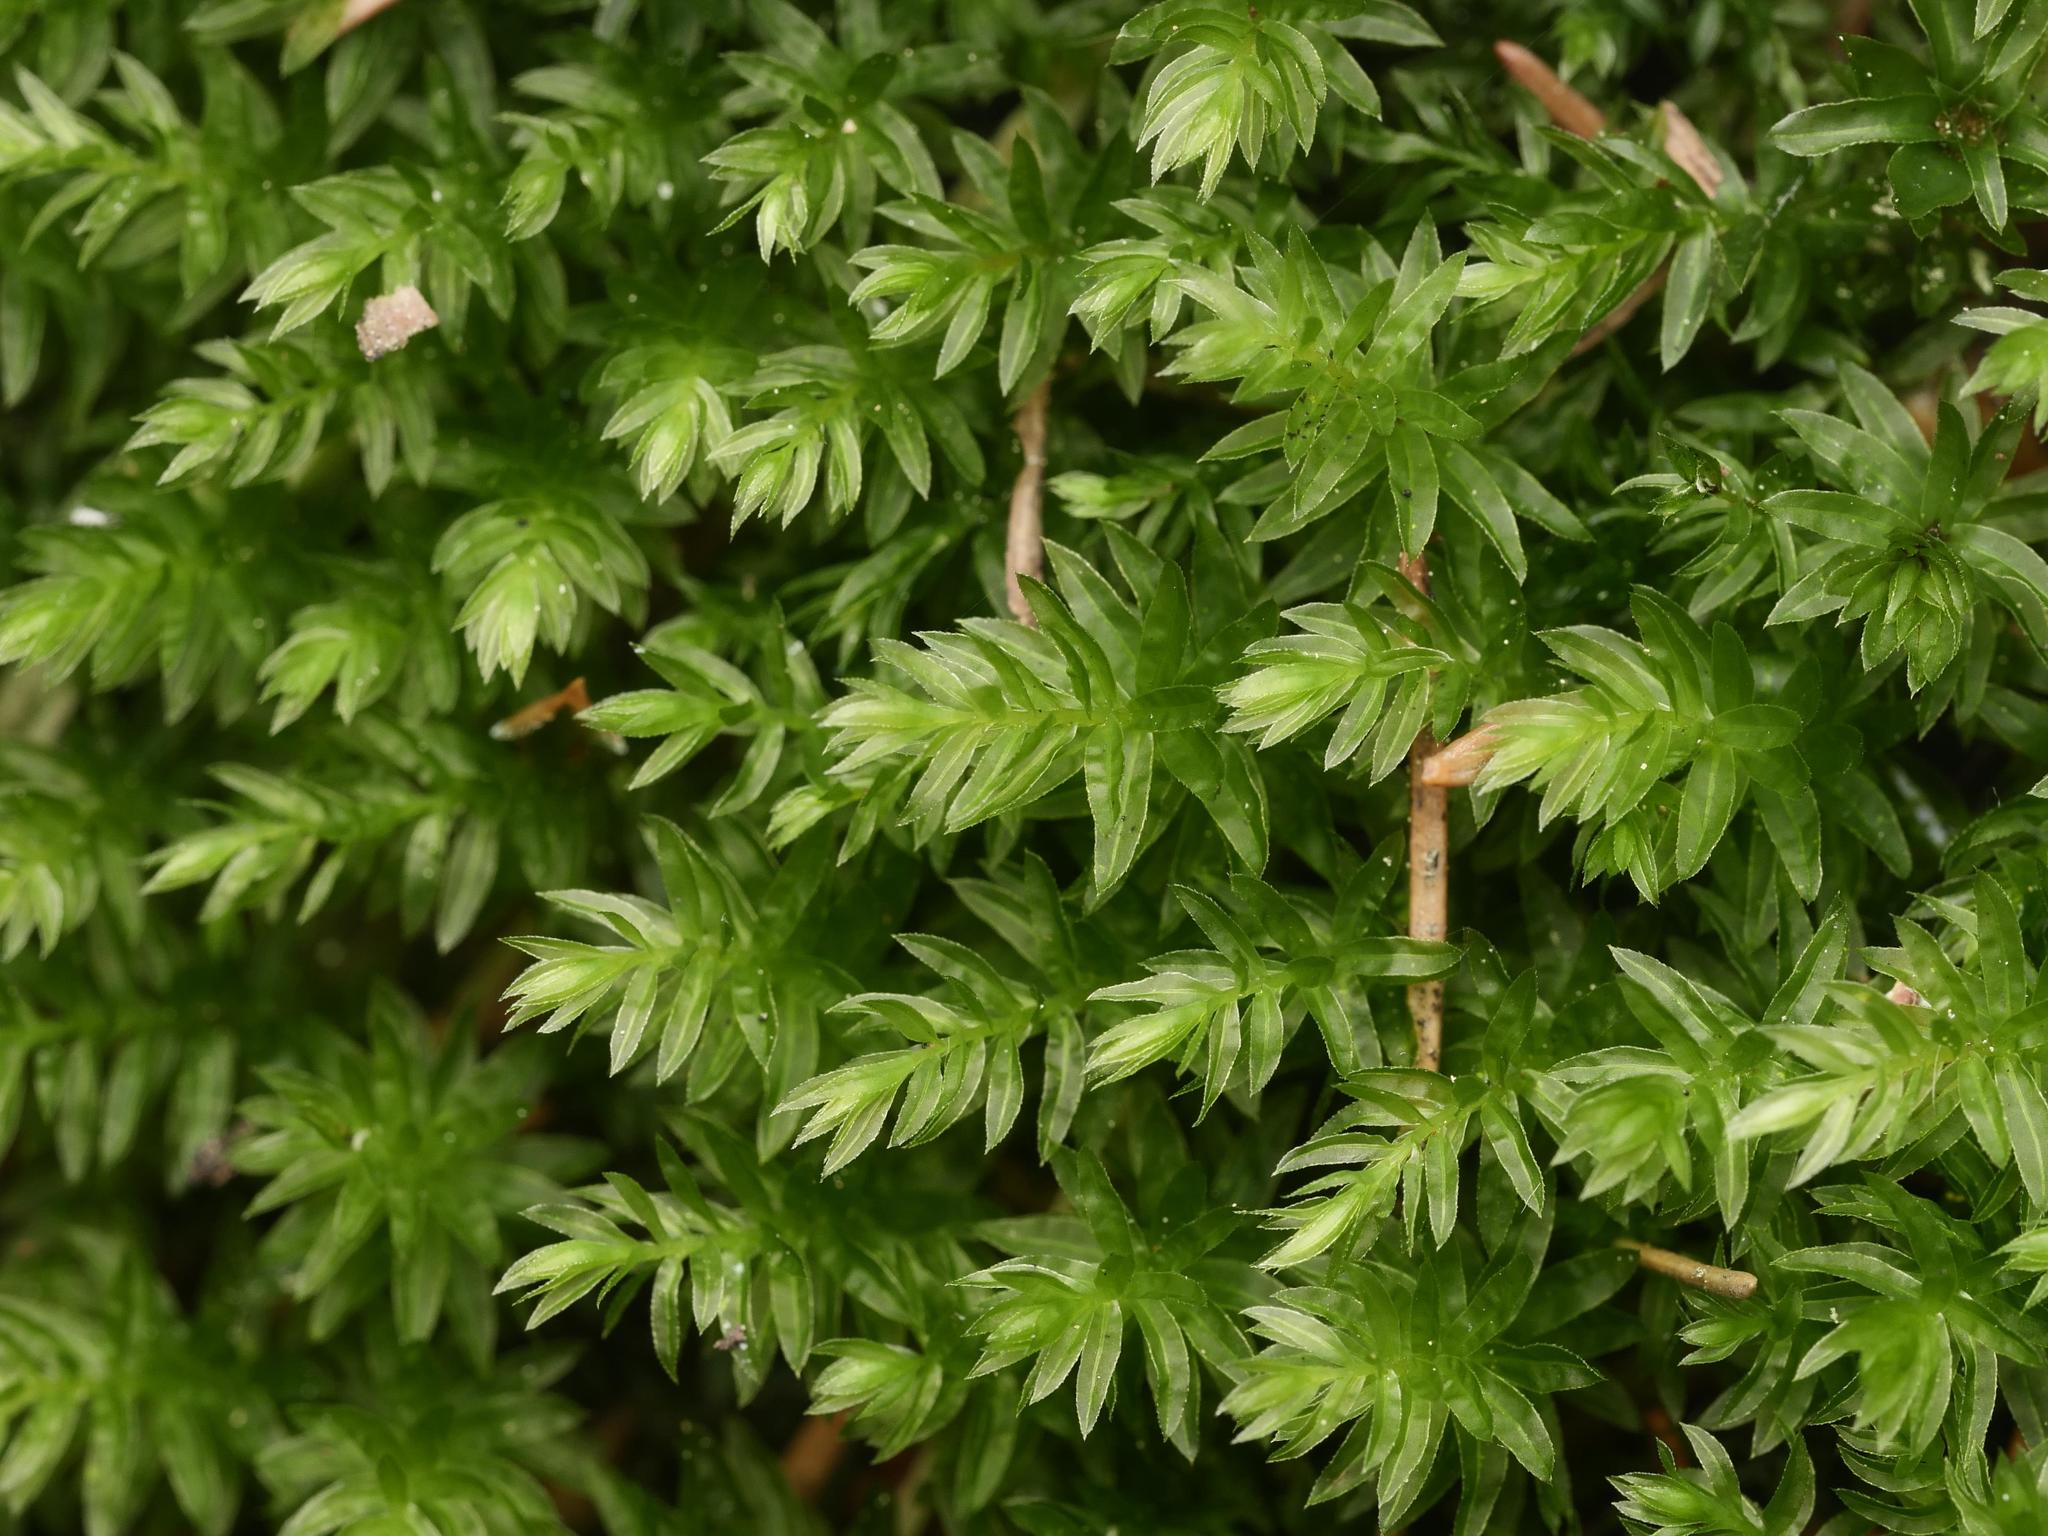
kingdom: Plantae
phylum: Bryophyta
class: Bryopsida
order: Bryales
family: Mniaceae
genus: Mnium
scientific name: Mnium hornum
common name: Swan's-neck leafy moss
